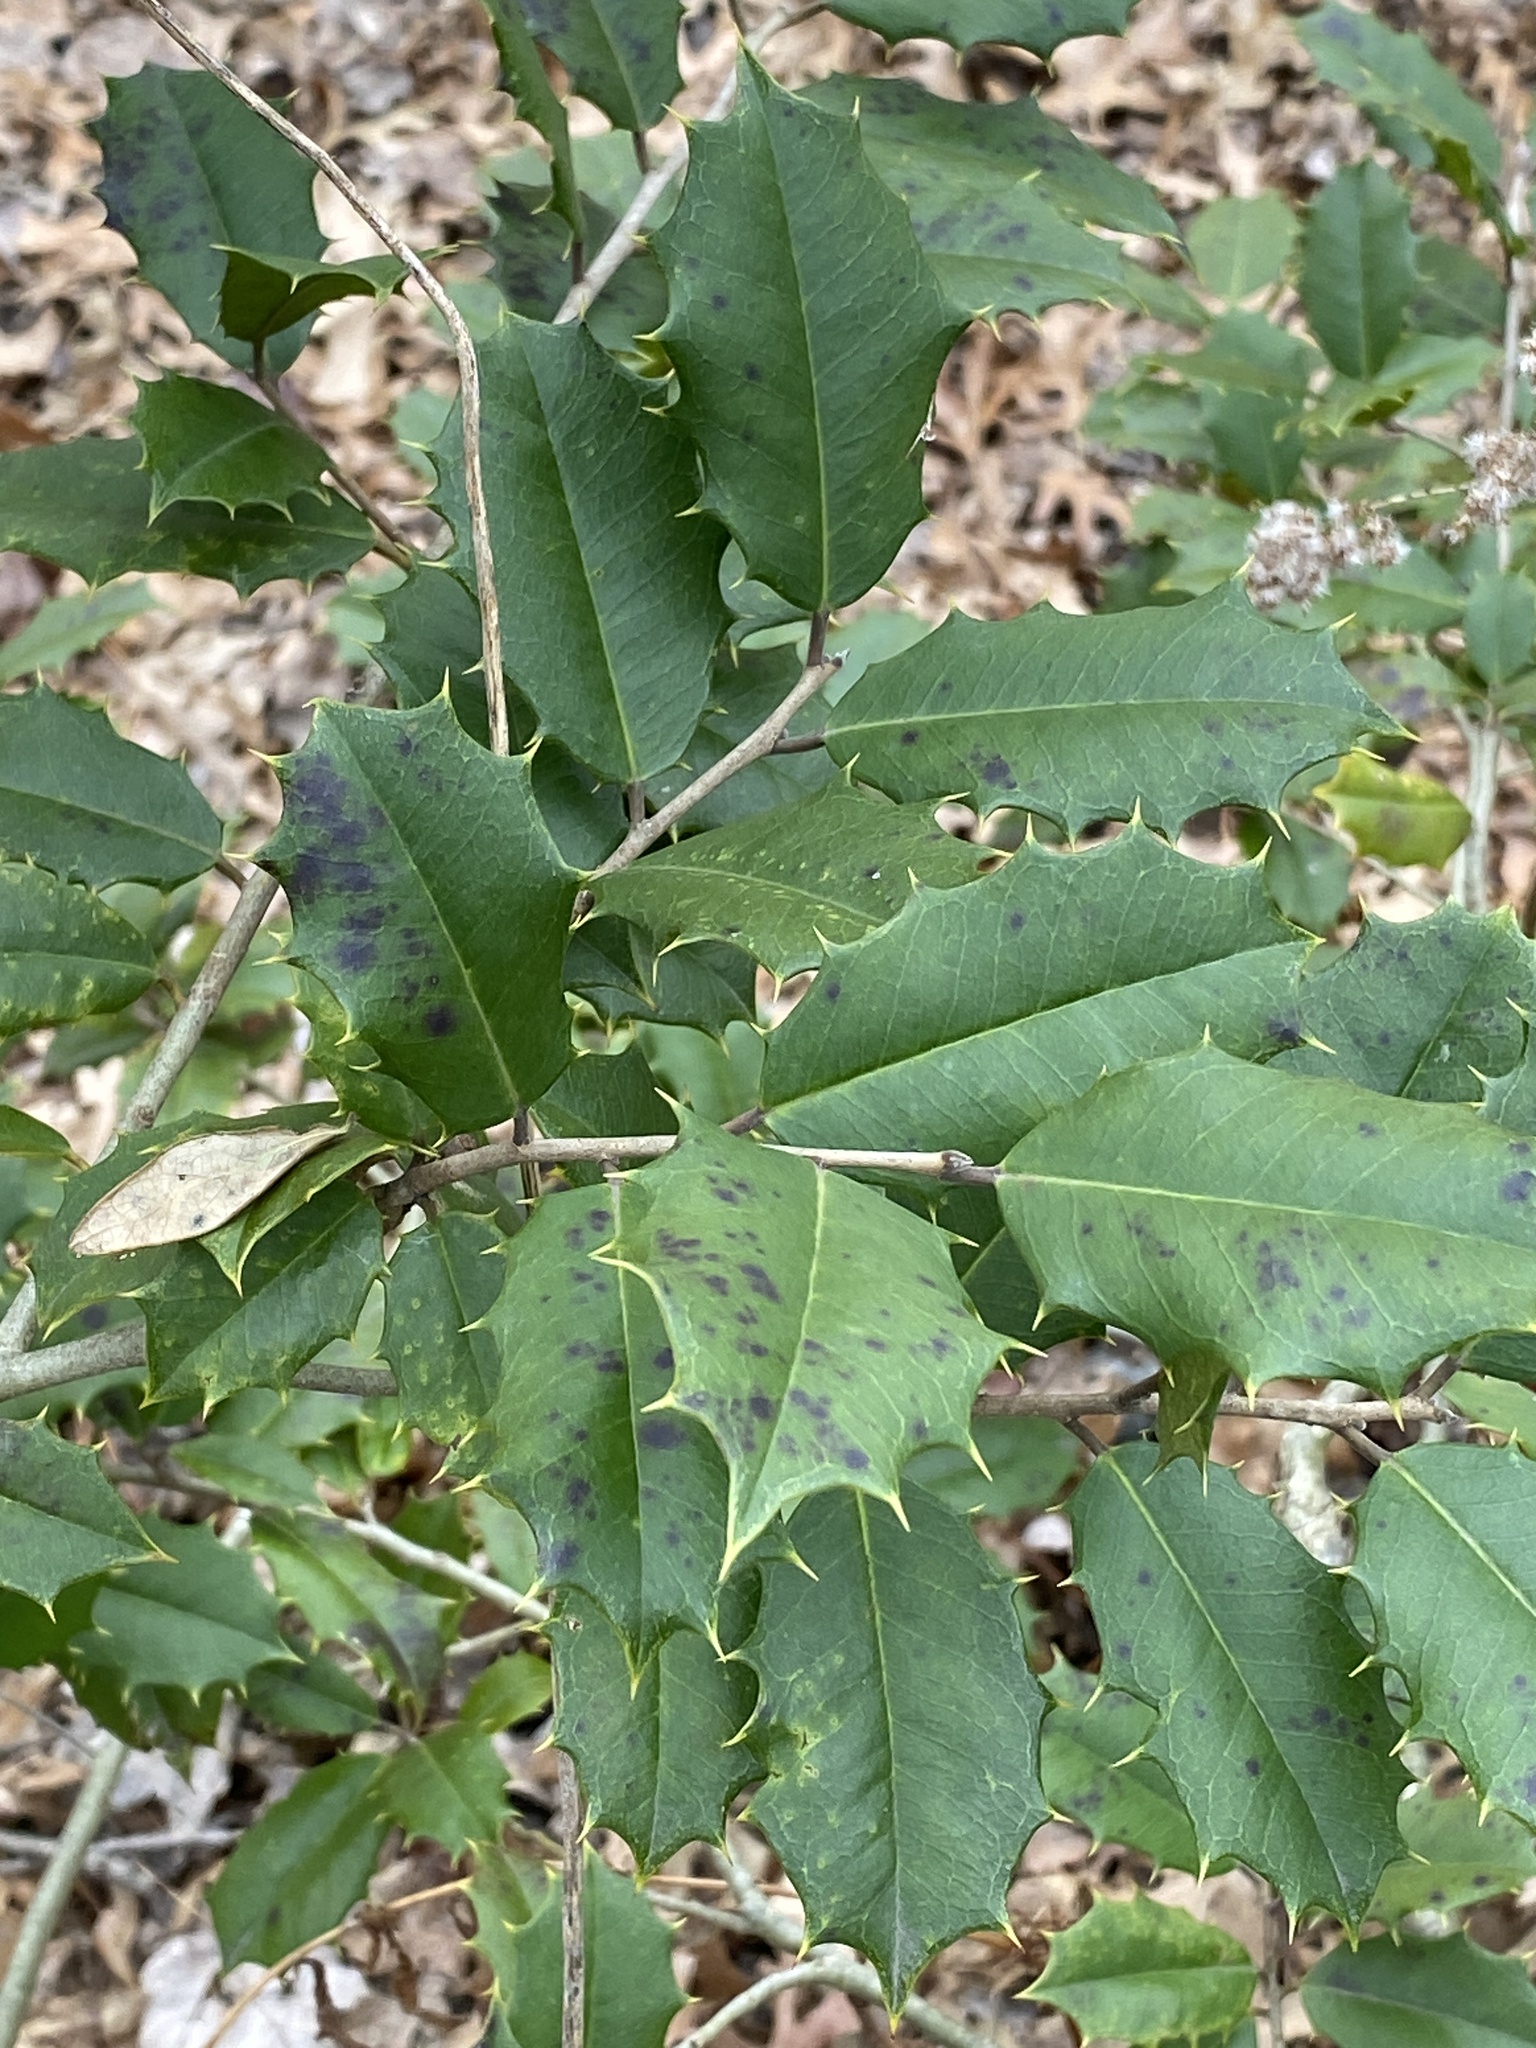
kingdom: Plantae
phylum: Tracheophyta
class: Magnoliopsida
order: Aquifoliales
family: Aquifoliaceae
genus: Ilex
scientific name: Ilex opaca
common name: American holly
